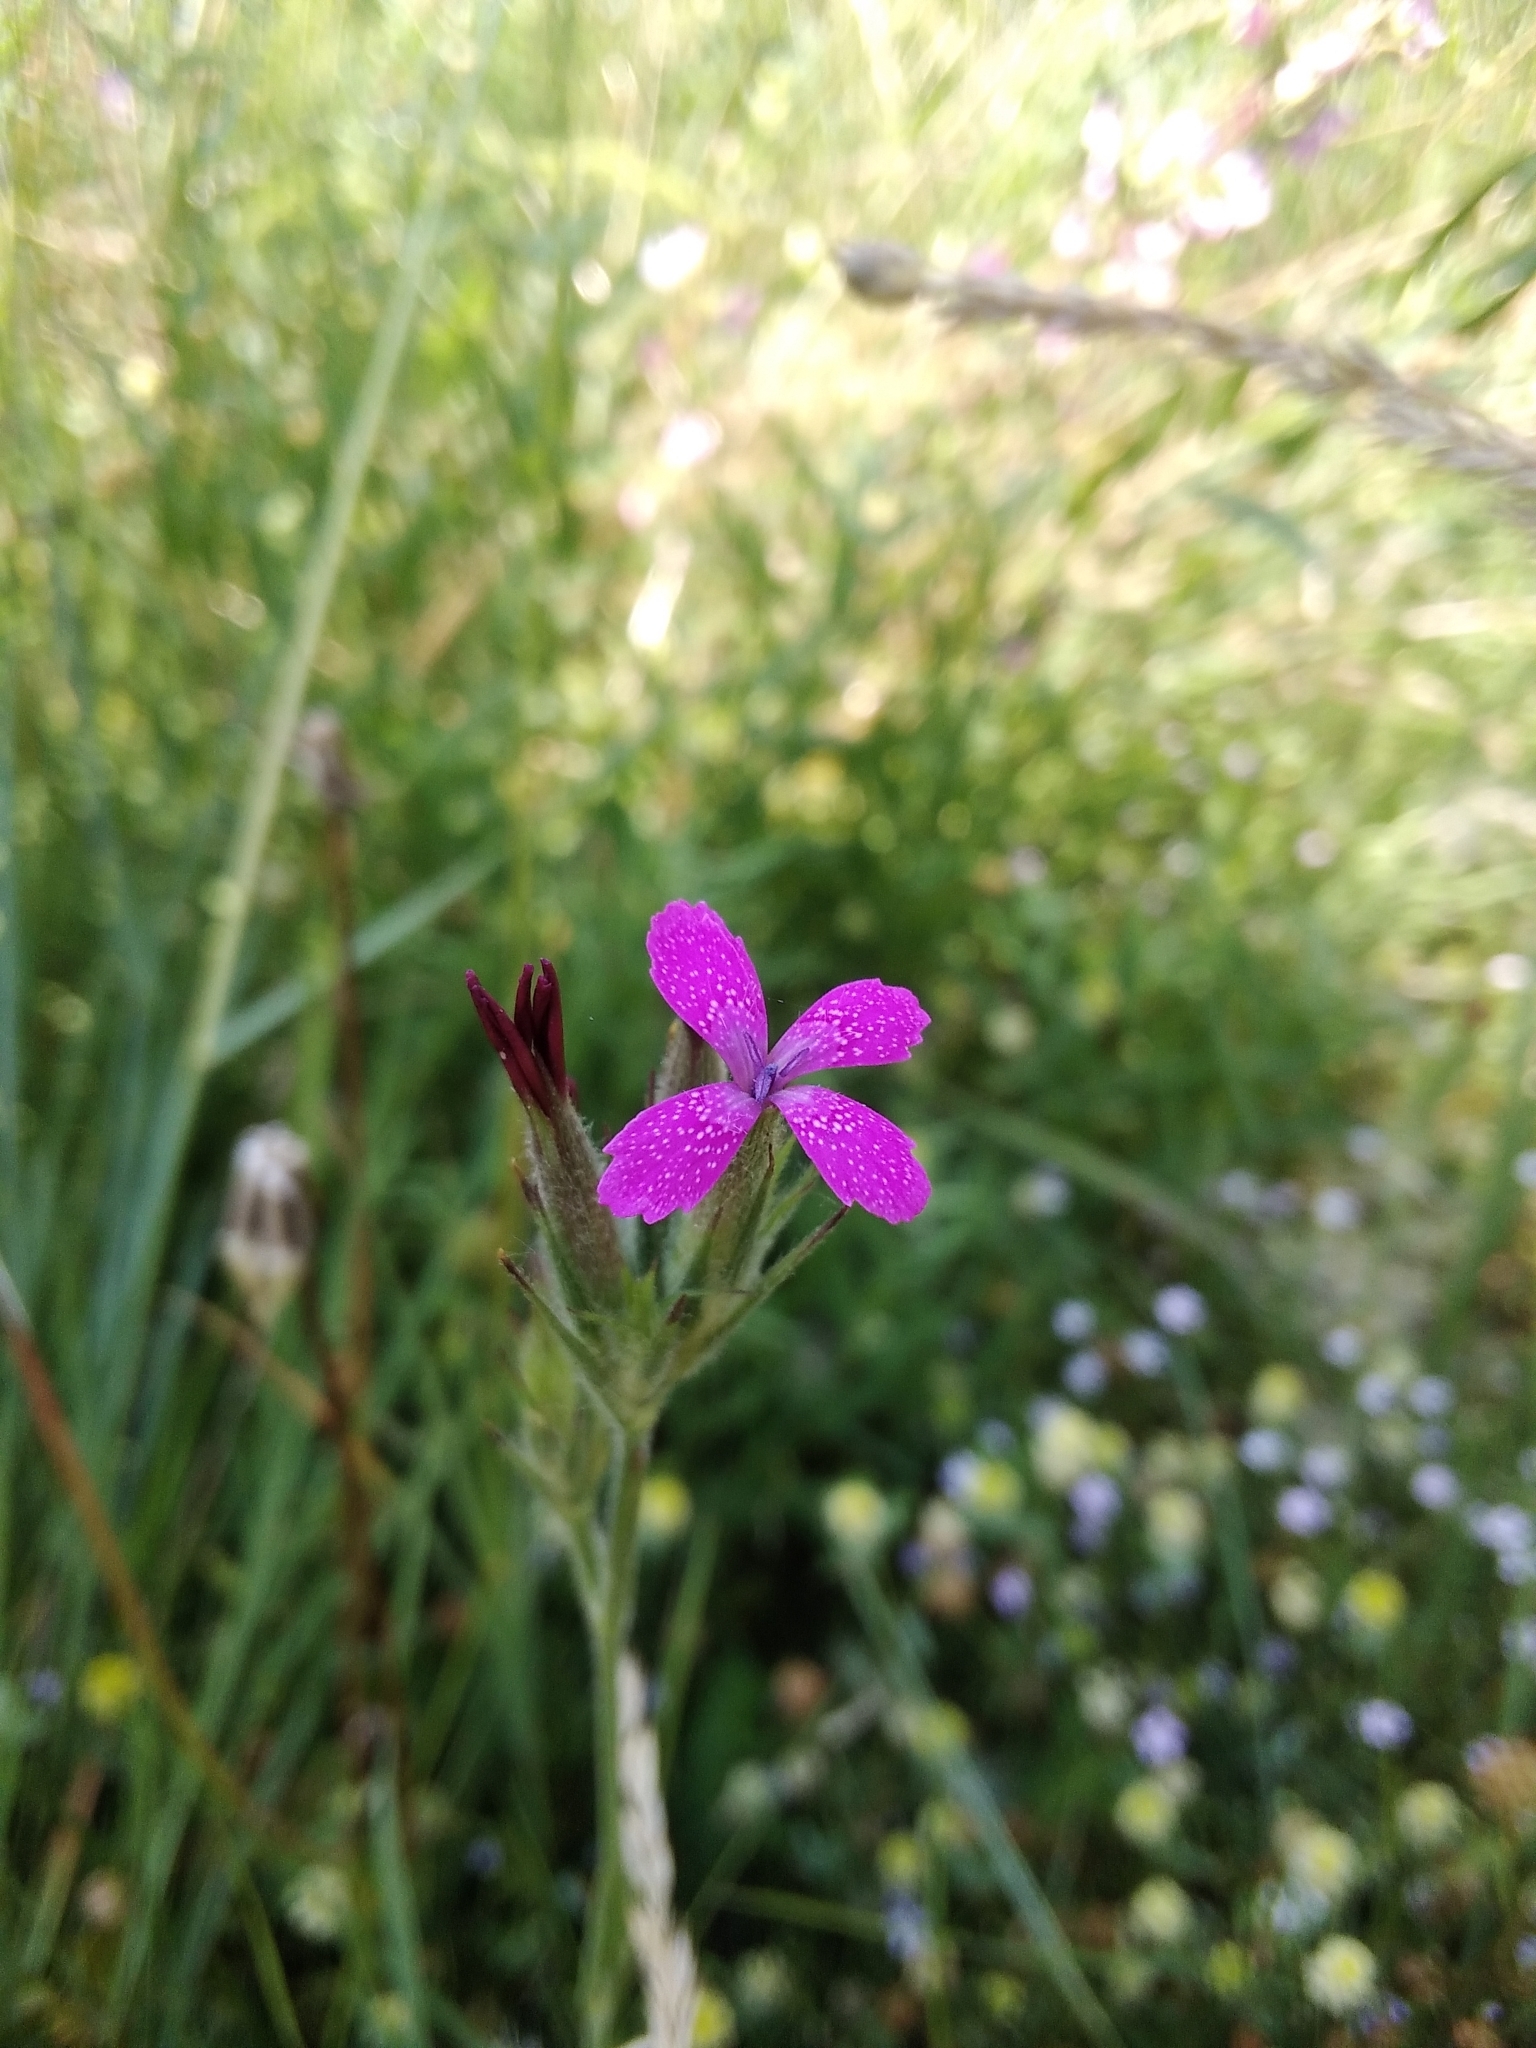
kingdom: Plantae
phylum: Tracheophyta
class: Magnoliopsida
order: Caryophyllales
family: Caryophyllaceae
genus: Dianthus
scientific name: Dianthus armeria
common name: Deptford pink
